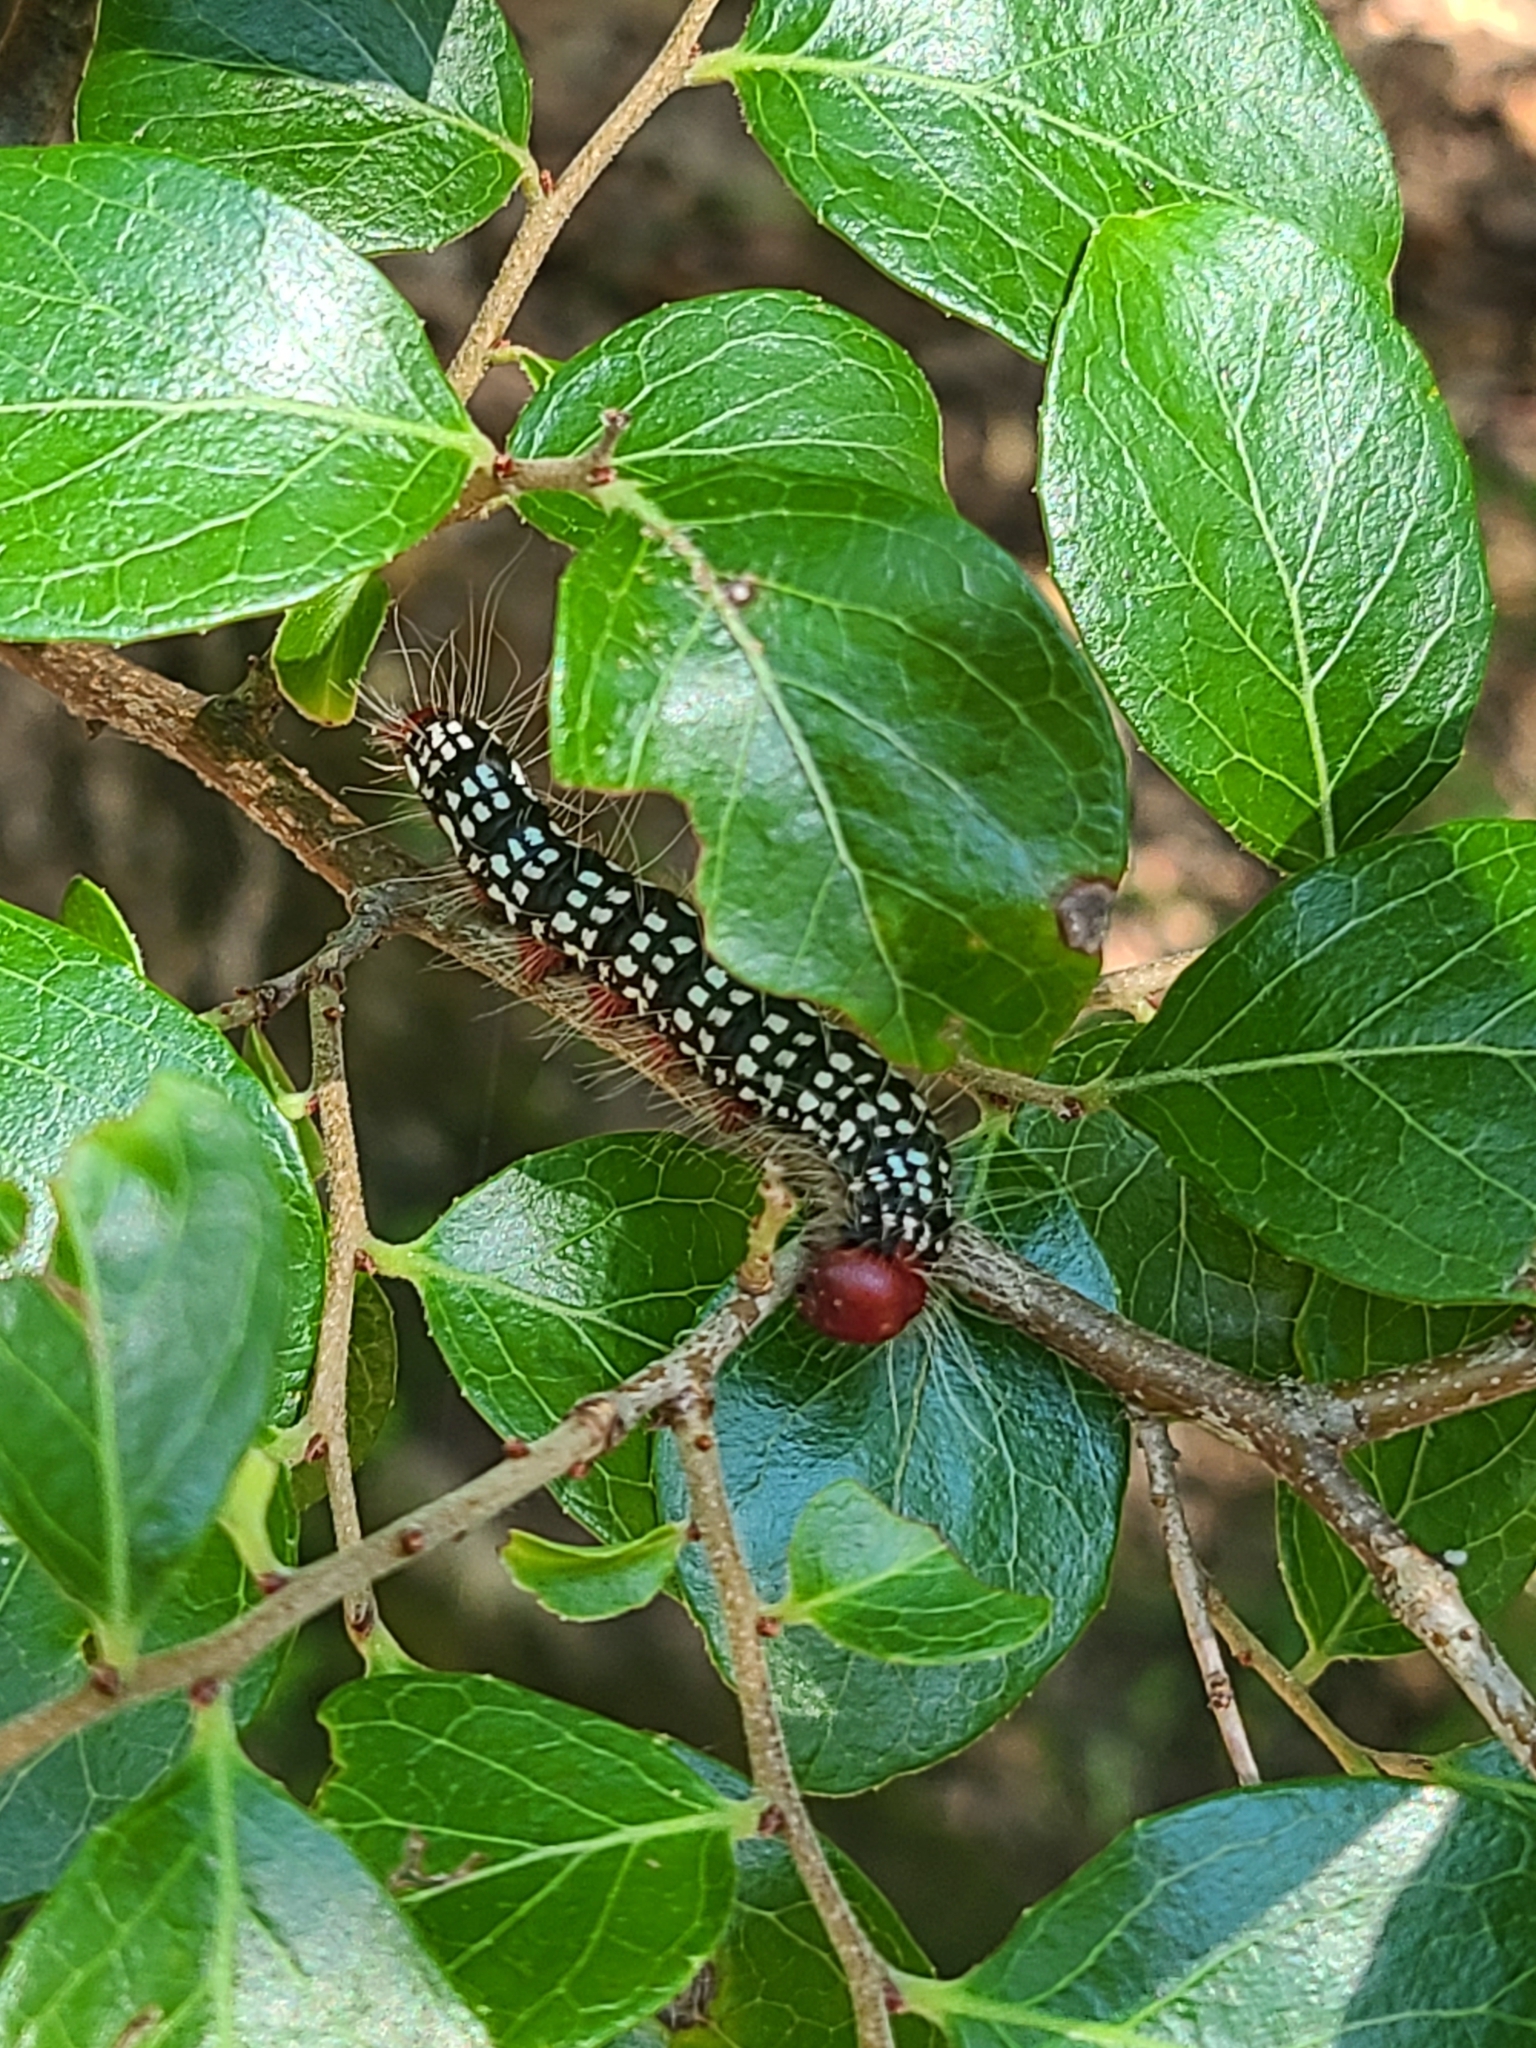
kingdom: Animalia
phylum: Arthropoda
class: Insecta
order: Lepidoptera
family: Notodontidae
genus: Datana
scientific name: Datana major
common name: Azalea caterpillar
